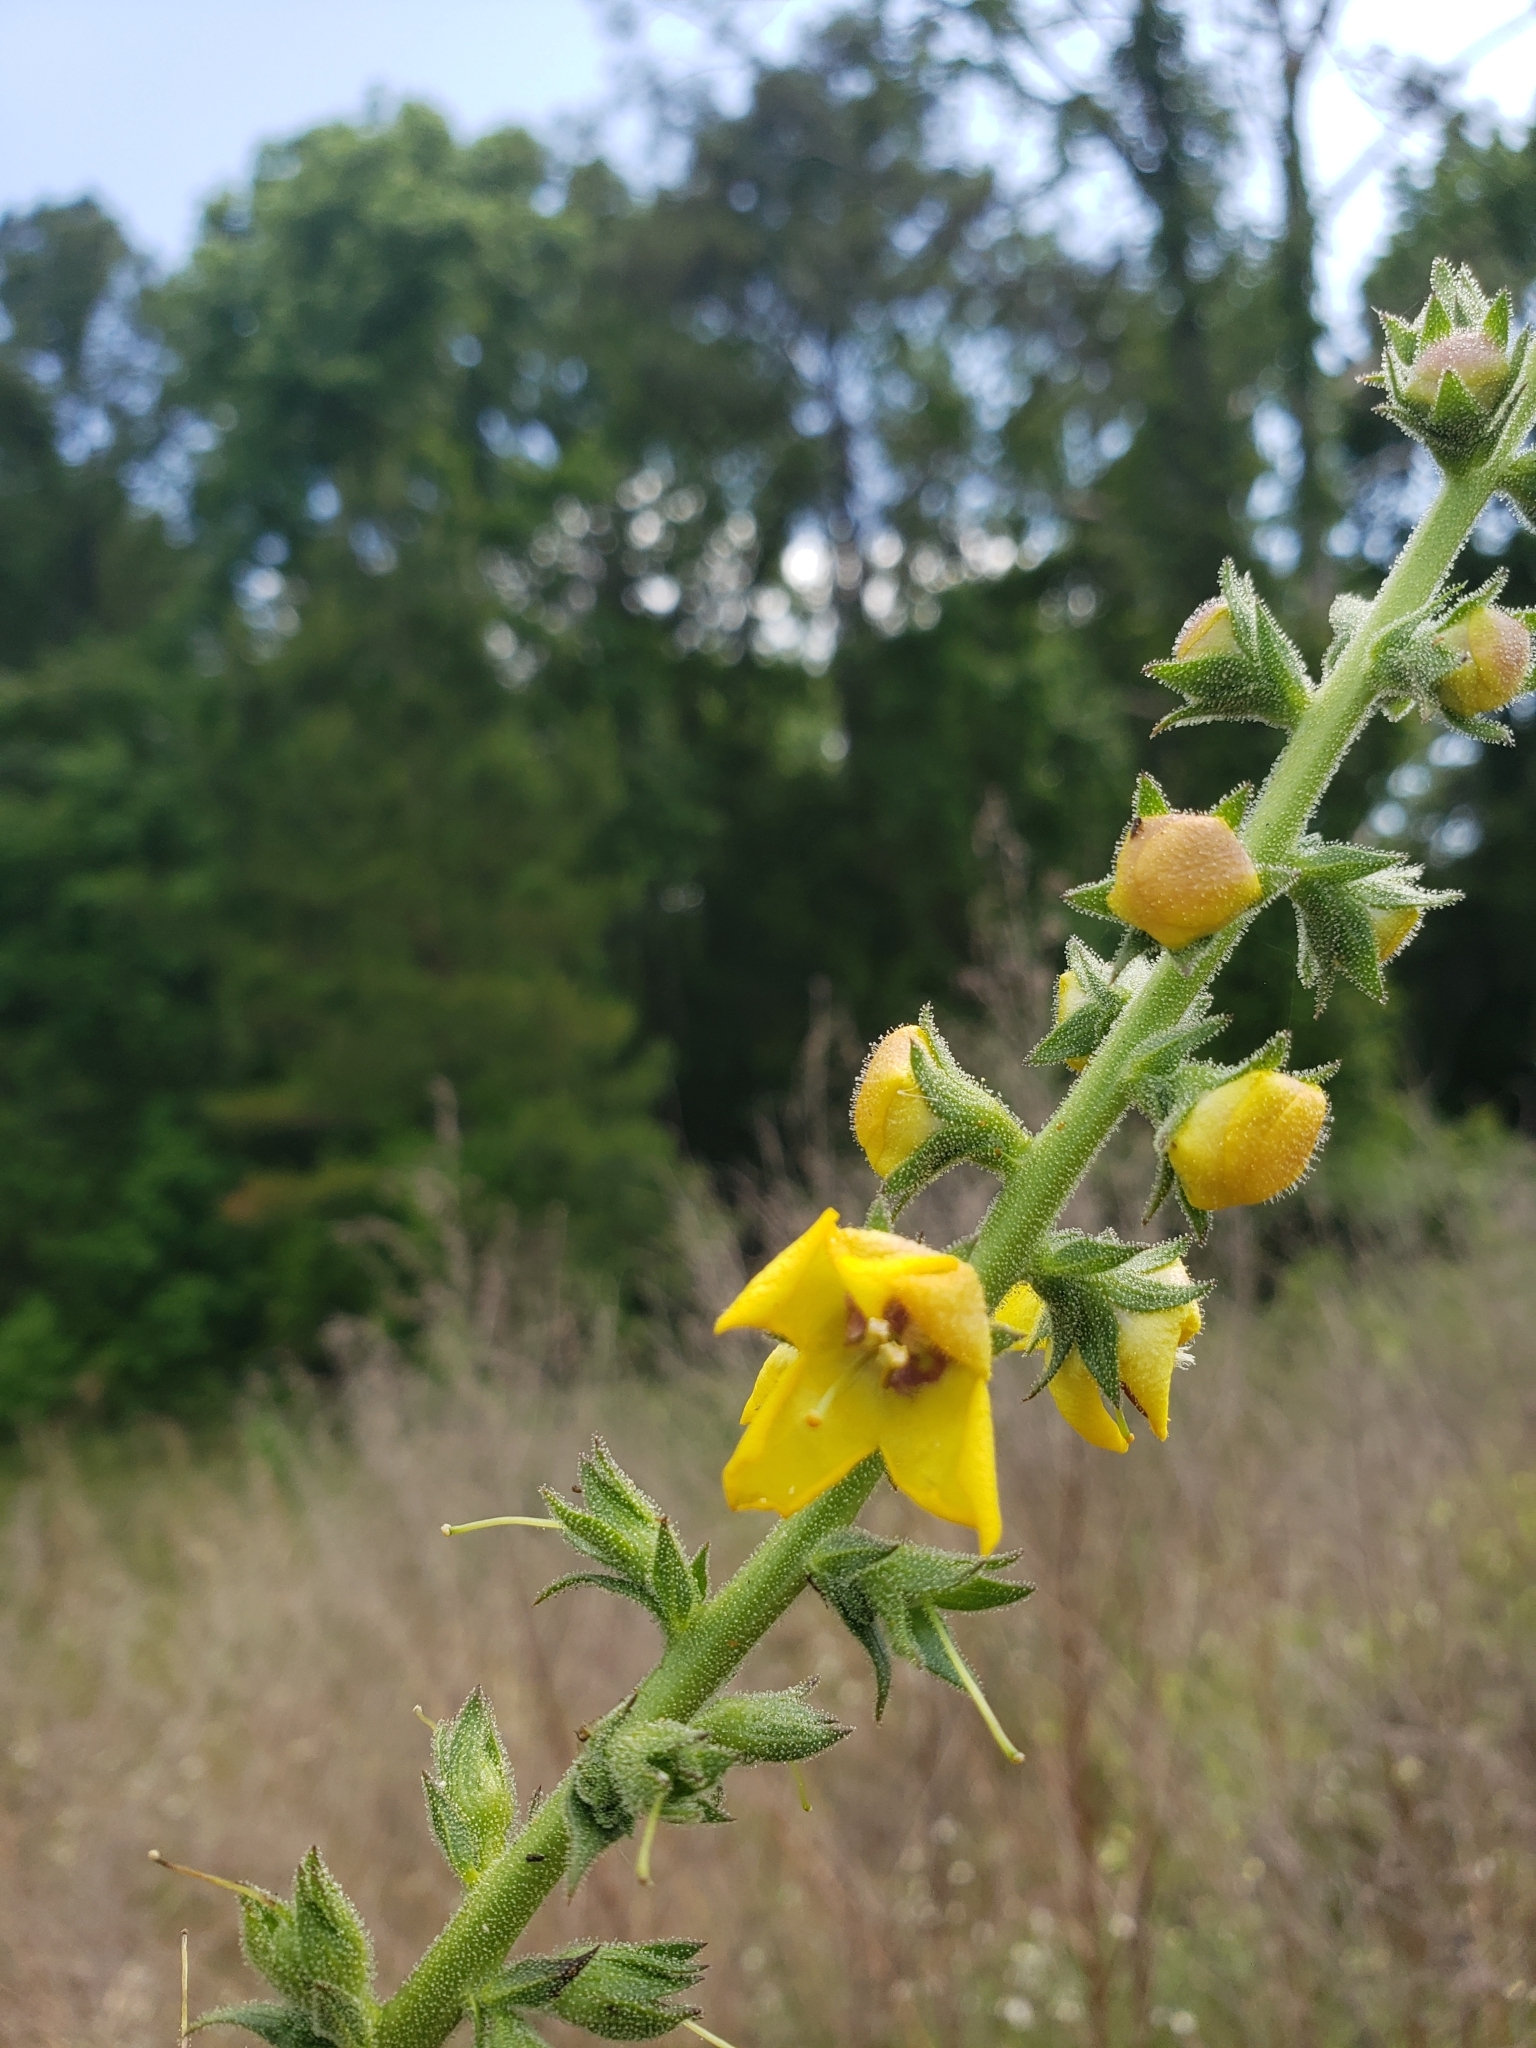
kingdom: Plantae
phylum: Tracheophyta
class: Magnoliopsida
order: Lamiales
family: Scrophulariaceae
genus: Verbascum
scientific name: Verbascum virgatum
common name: Twiggy mullein
